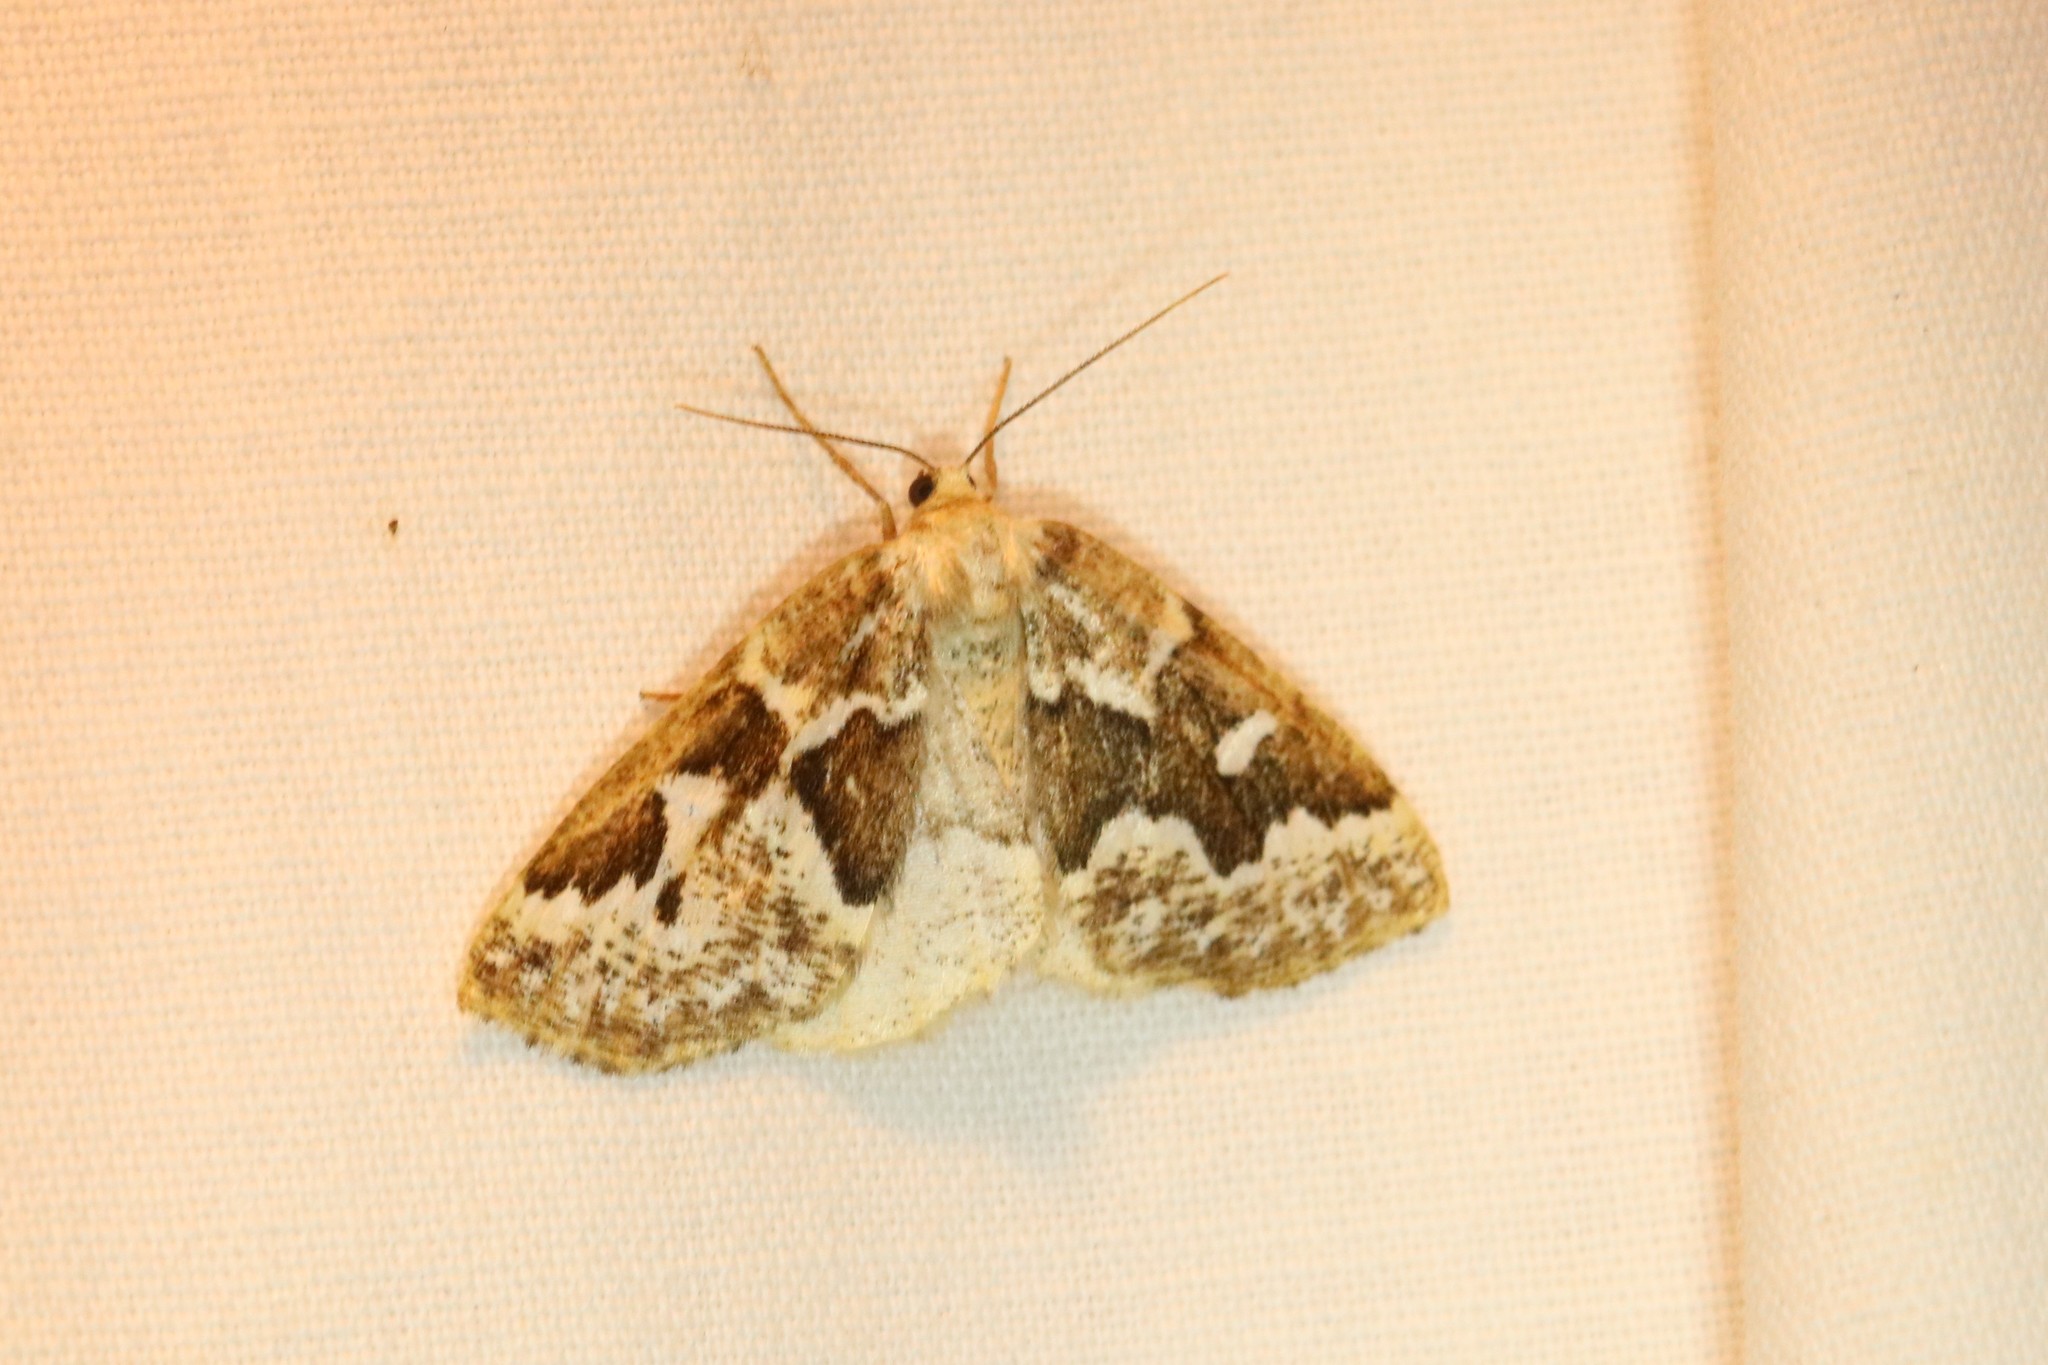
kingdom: Animalia
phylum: Arthropoda
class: Insecta
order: Lepidoptera
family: Geometridae
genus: Caripeta
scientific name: Caripeta divisata
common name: Gray spruce looper
